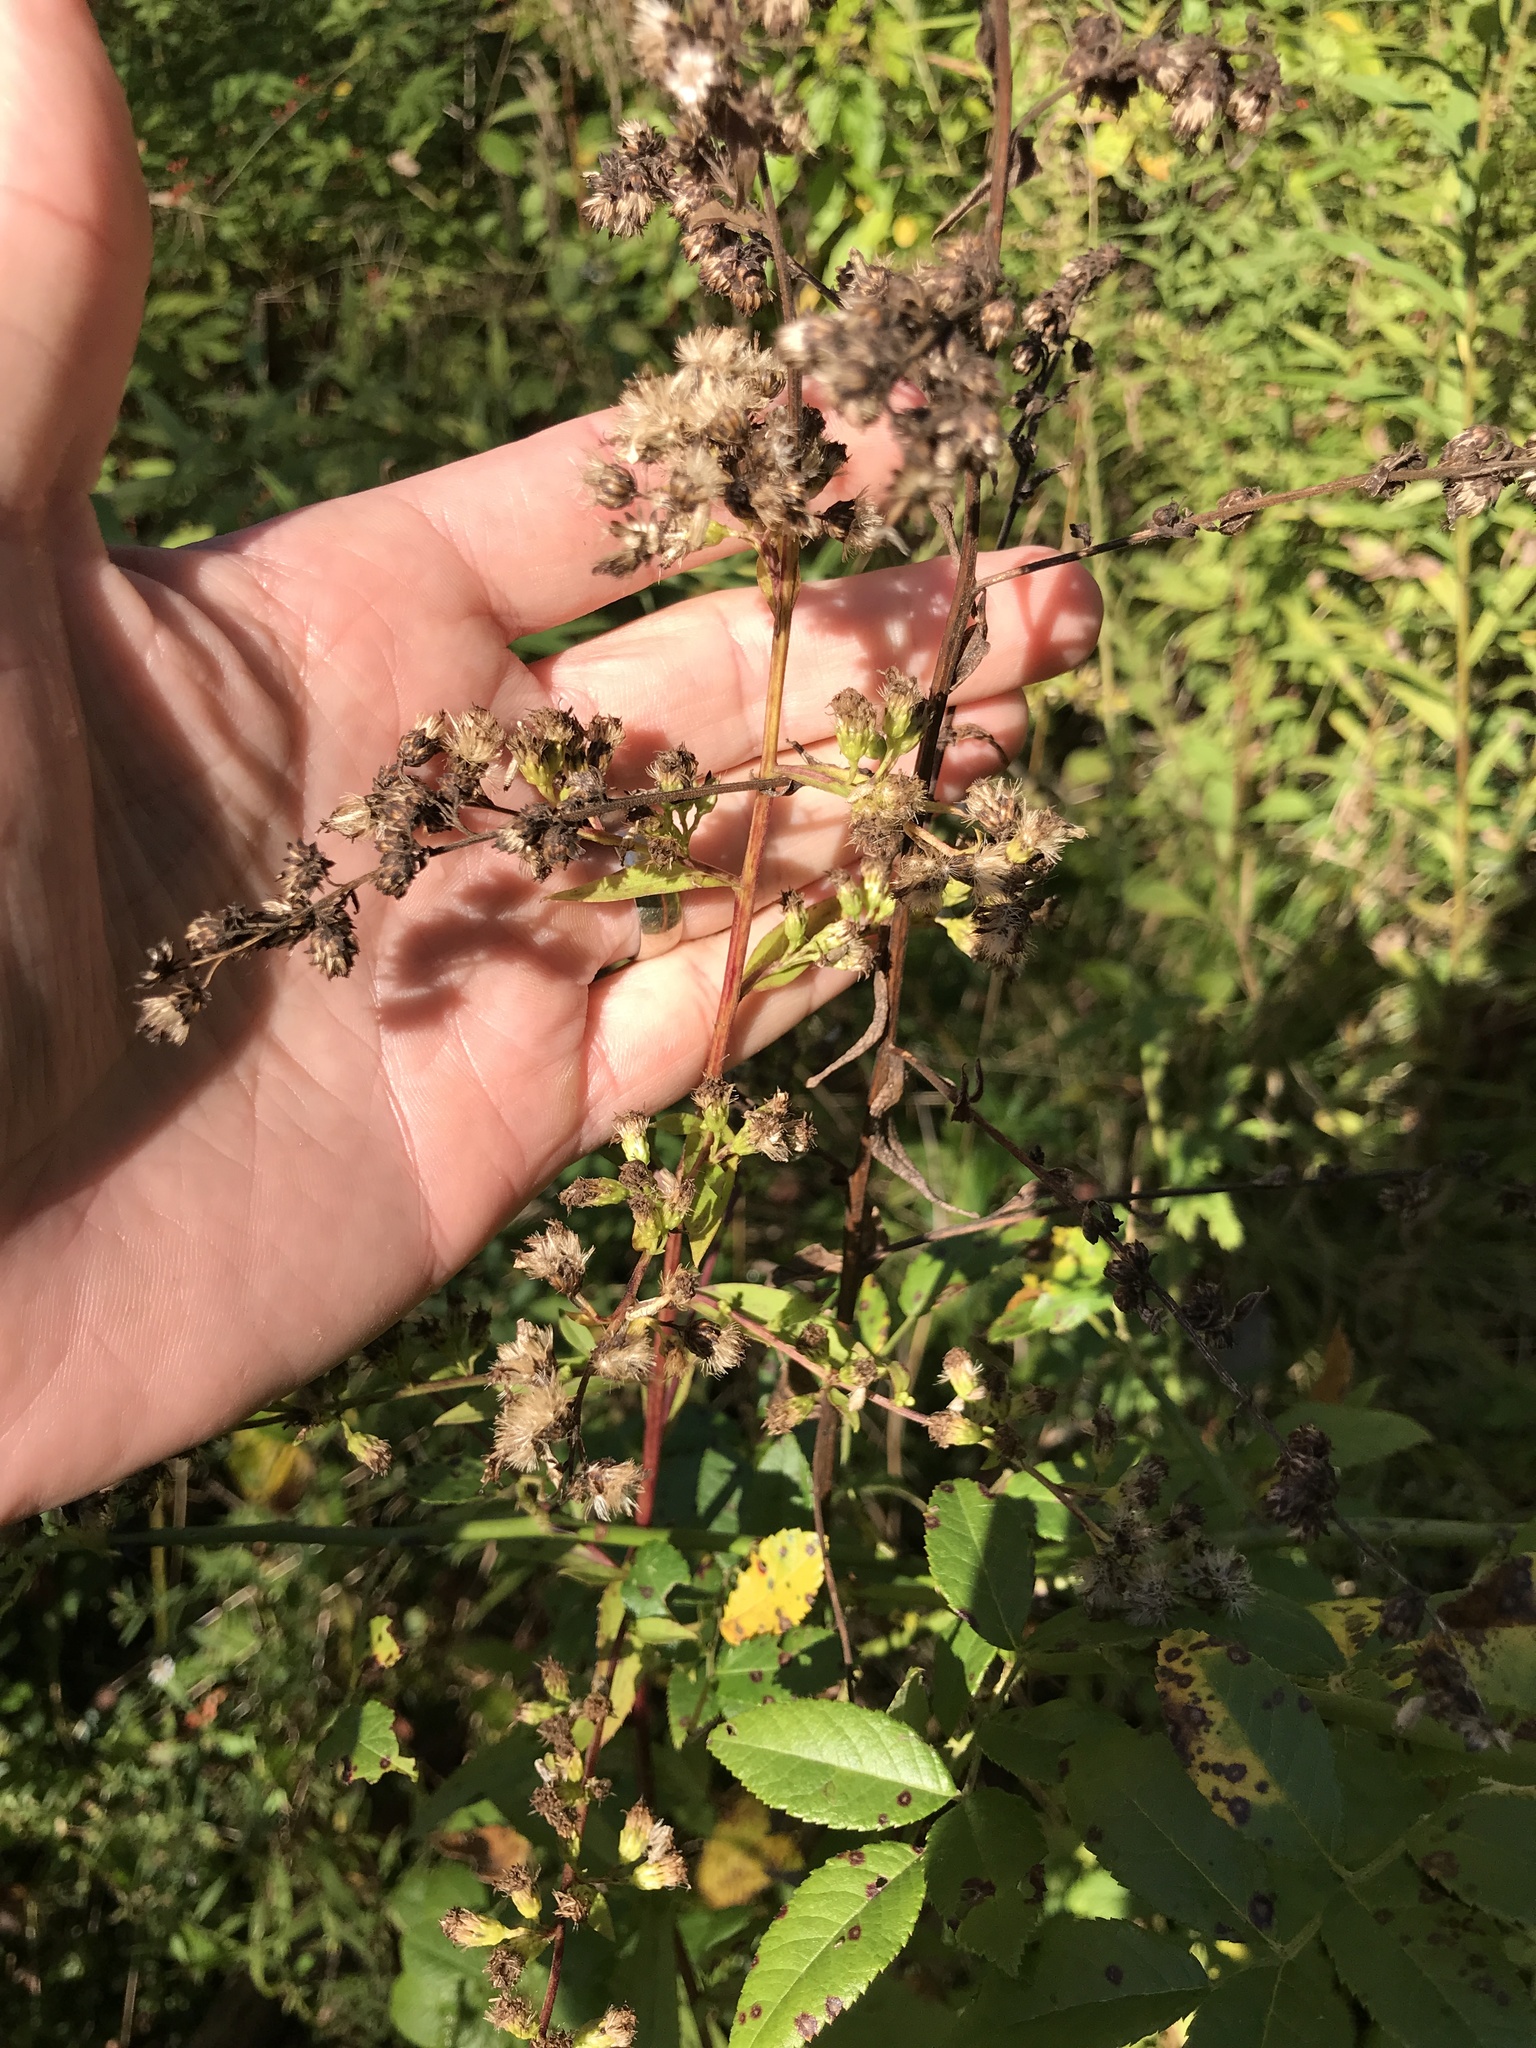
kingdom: Plantae
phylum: Tracheophyta
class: Magnoliopsida
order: Asterales
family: Asteraceae
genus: Solidago
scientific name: Solidago patula
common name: Rough-leaf goldenrod
